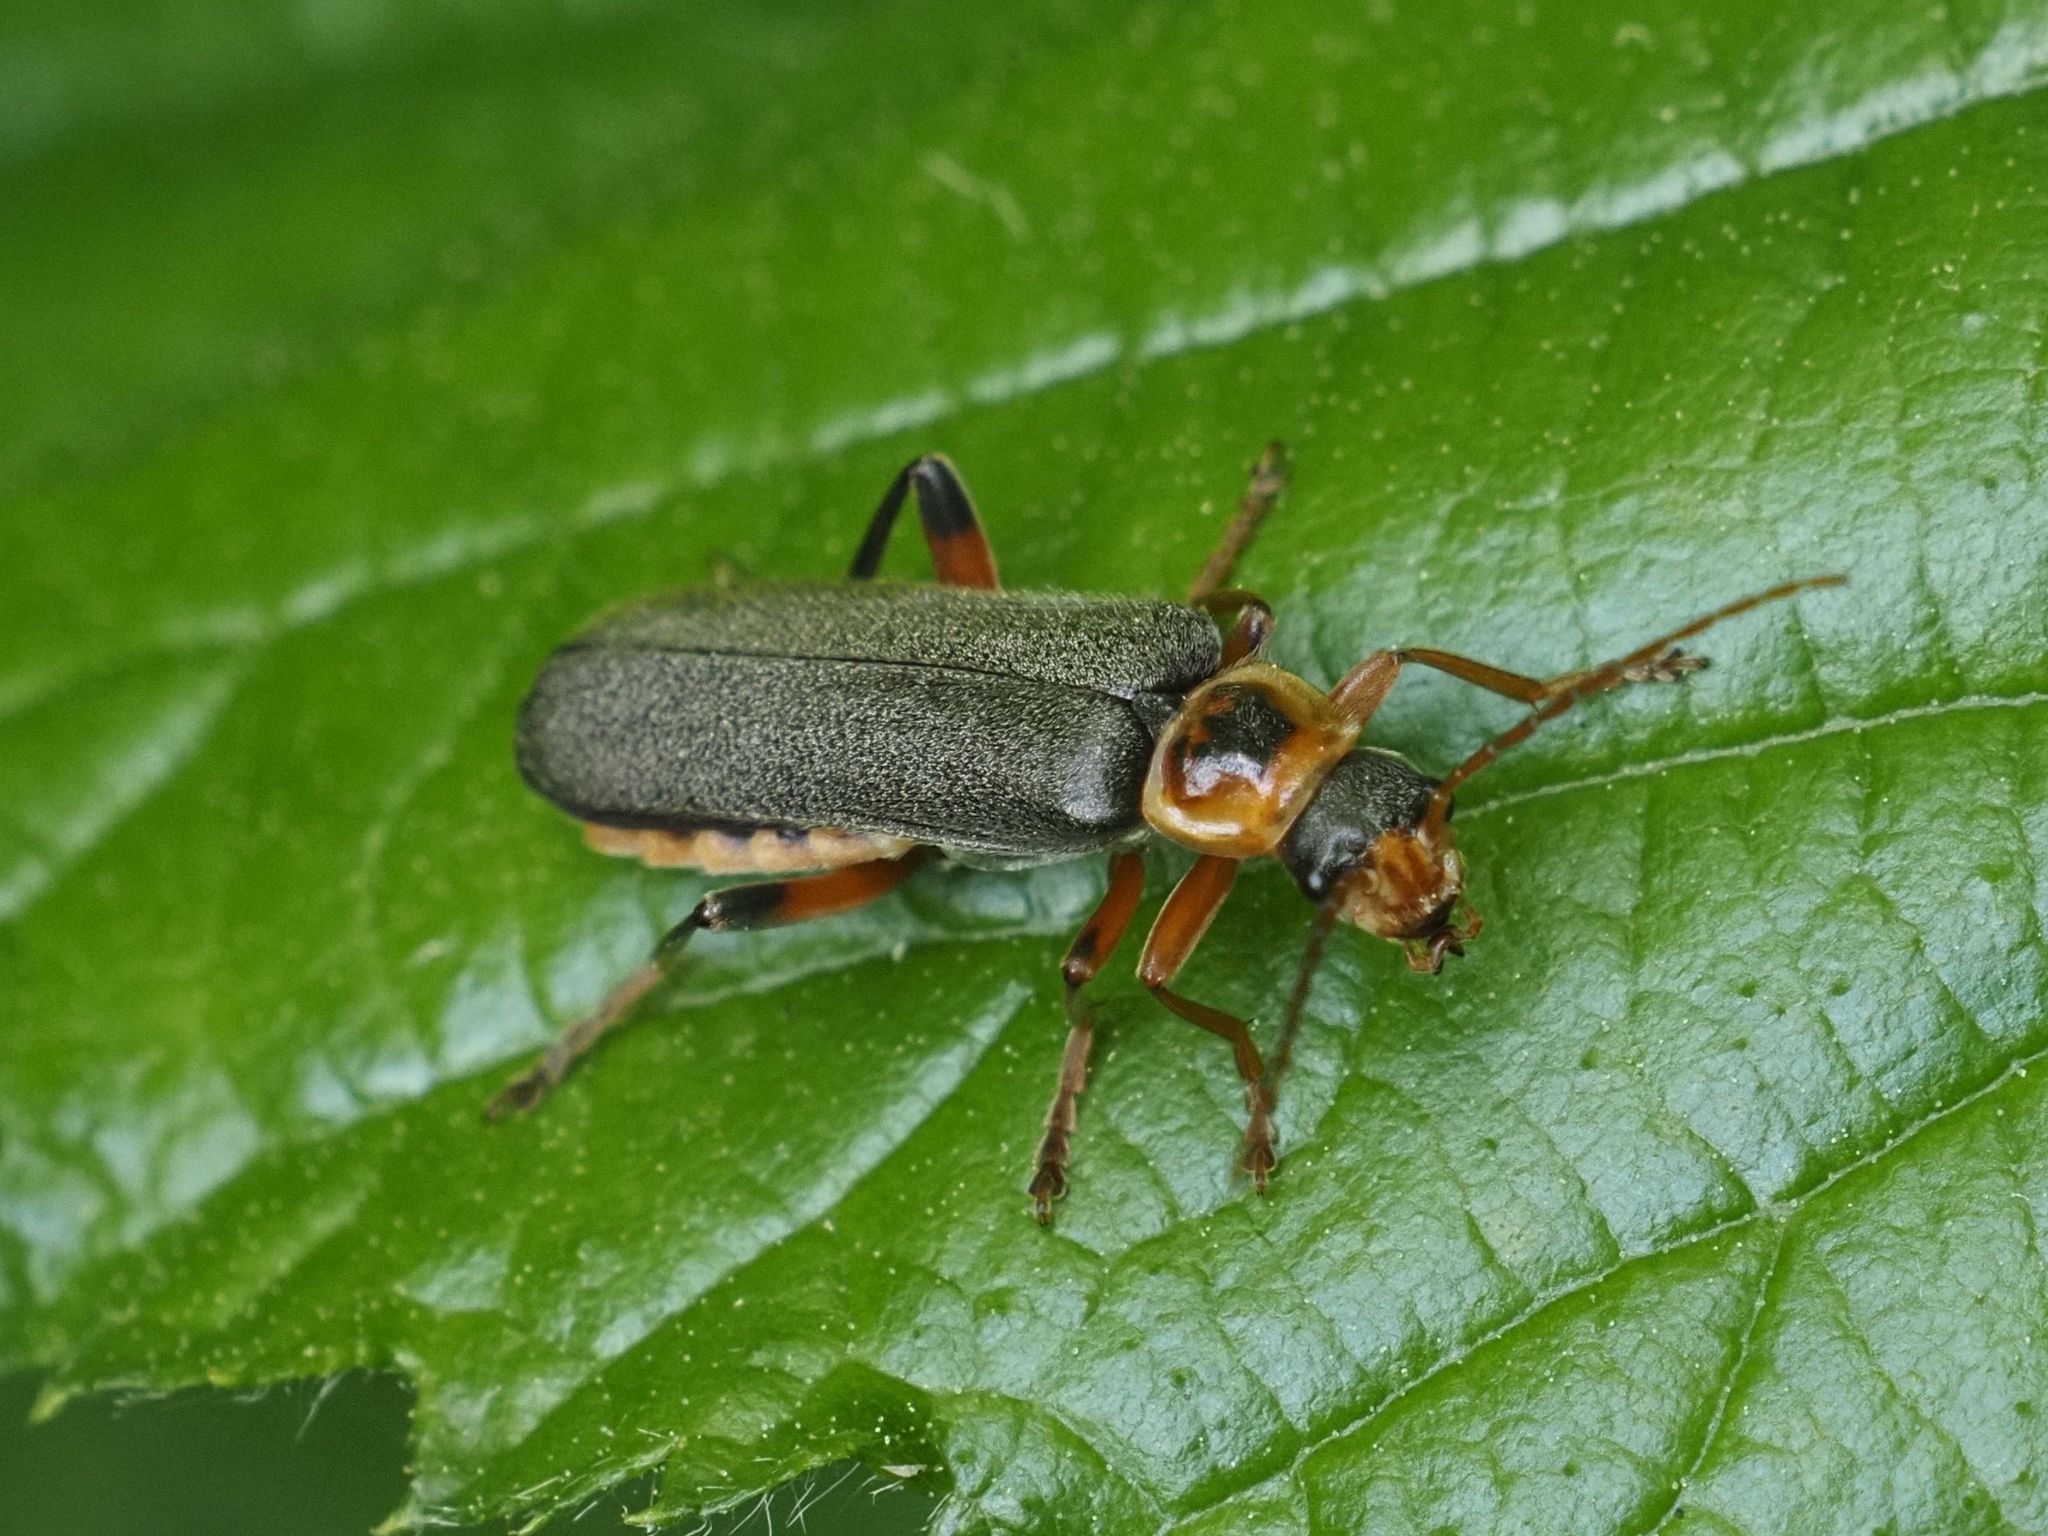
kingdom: Animalia
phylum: Arthropoda
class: Insecta
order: Coleoptera
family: Cantharidae
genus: Cantharis
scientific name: Cantharis nigricans
